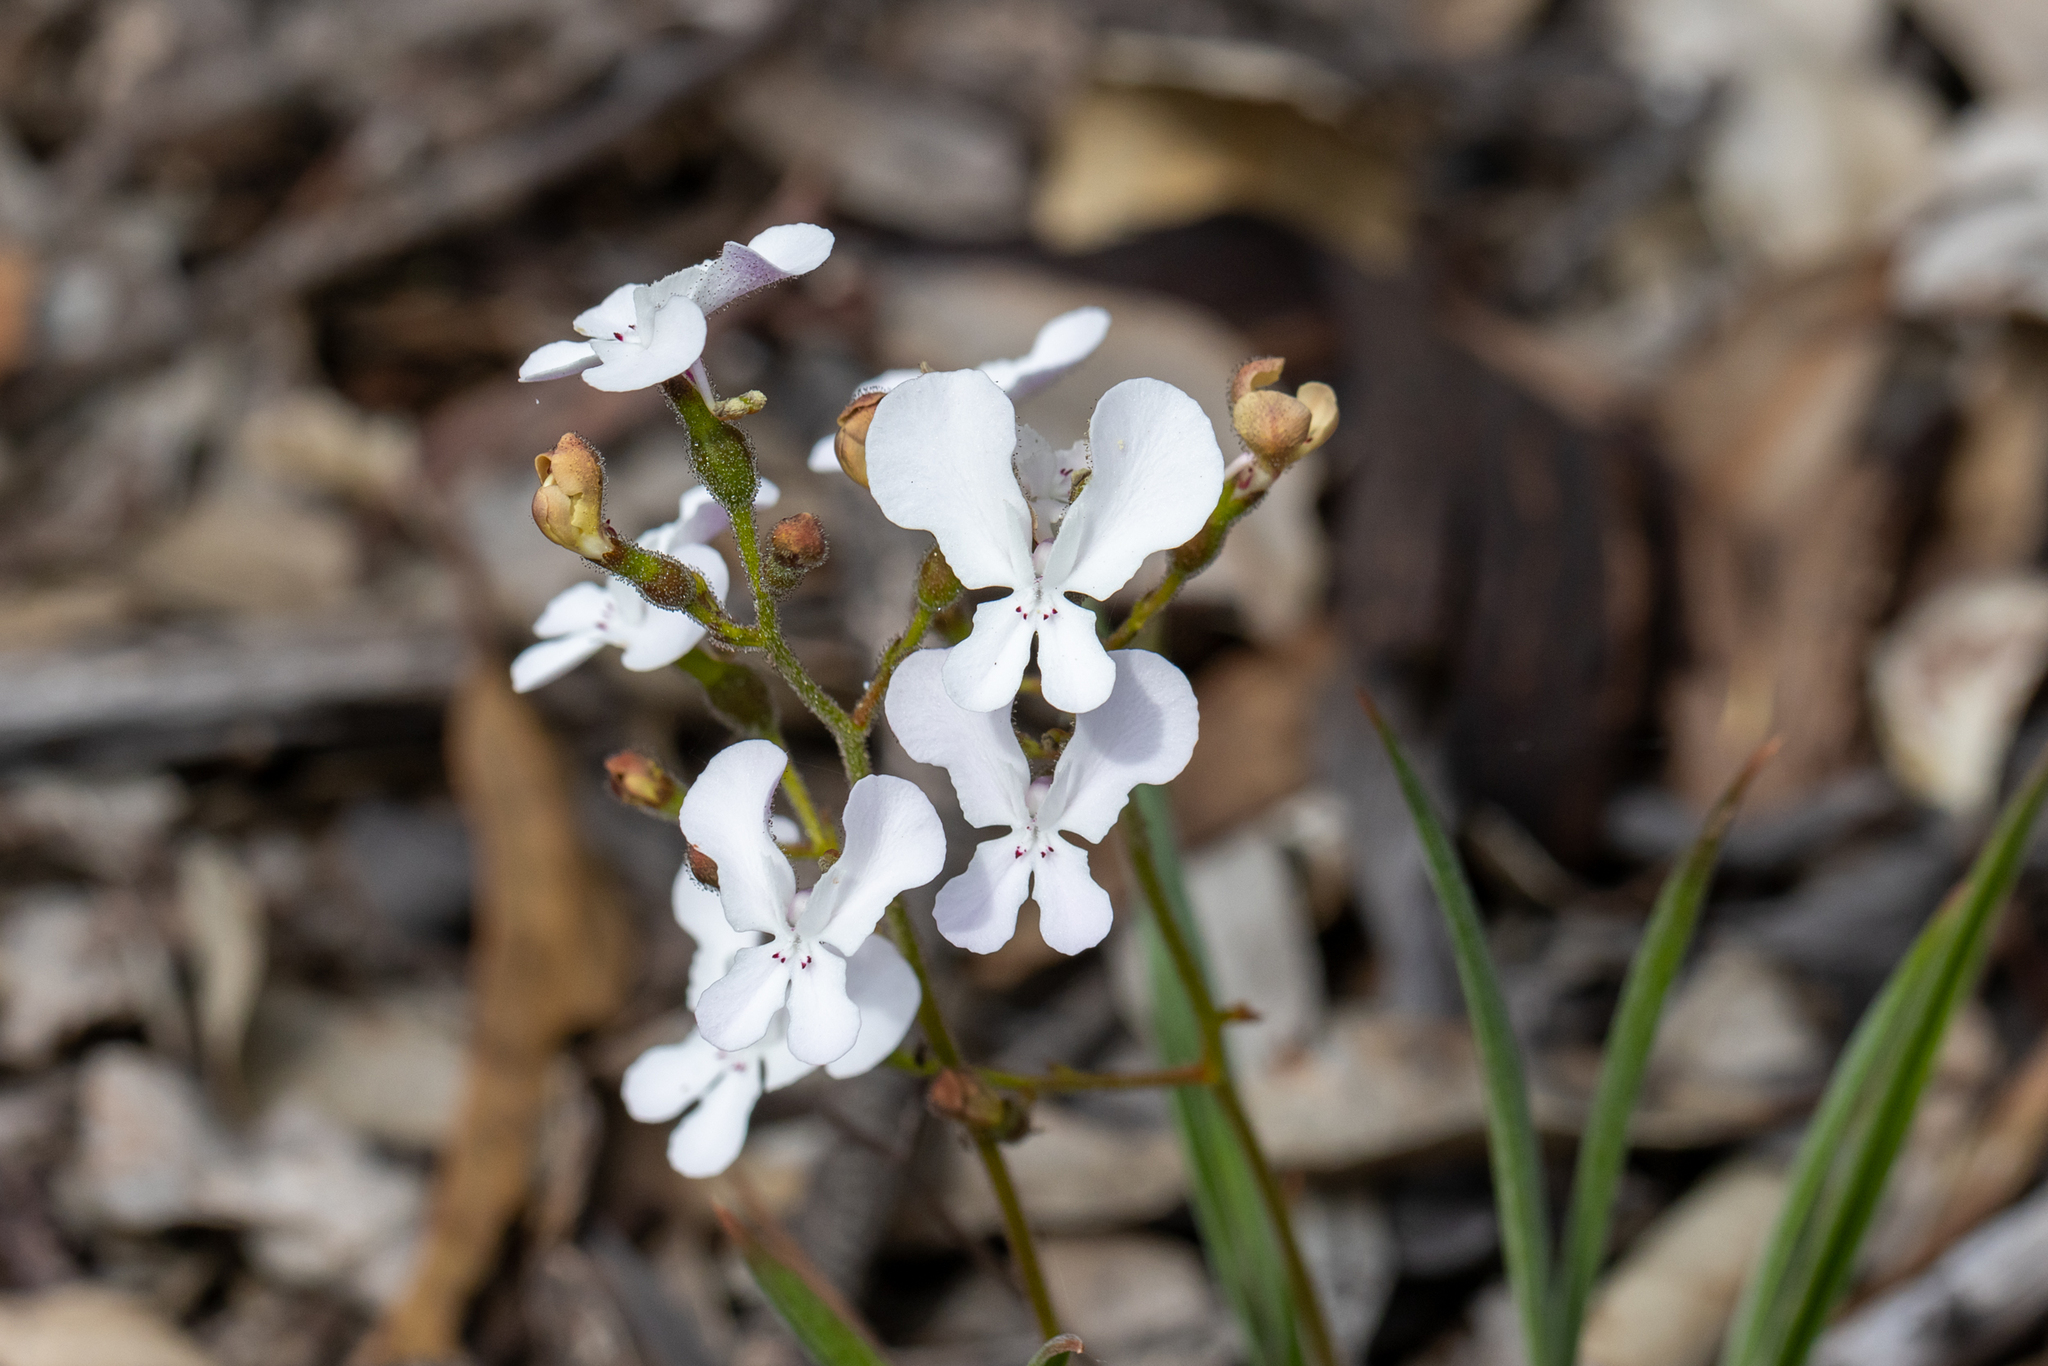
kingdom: Plantae
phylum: Tracheophyta
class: Magnoliopsida
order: Asterales
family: Stylidiaceae
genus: Stylidium
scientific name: Stylidium caricifolium
